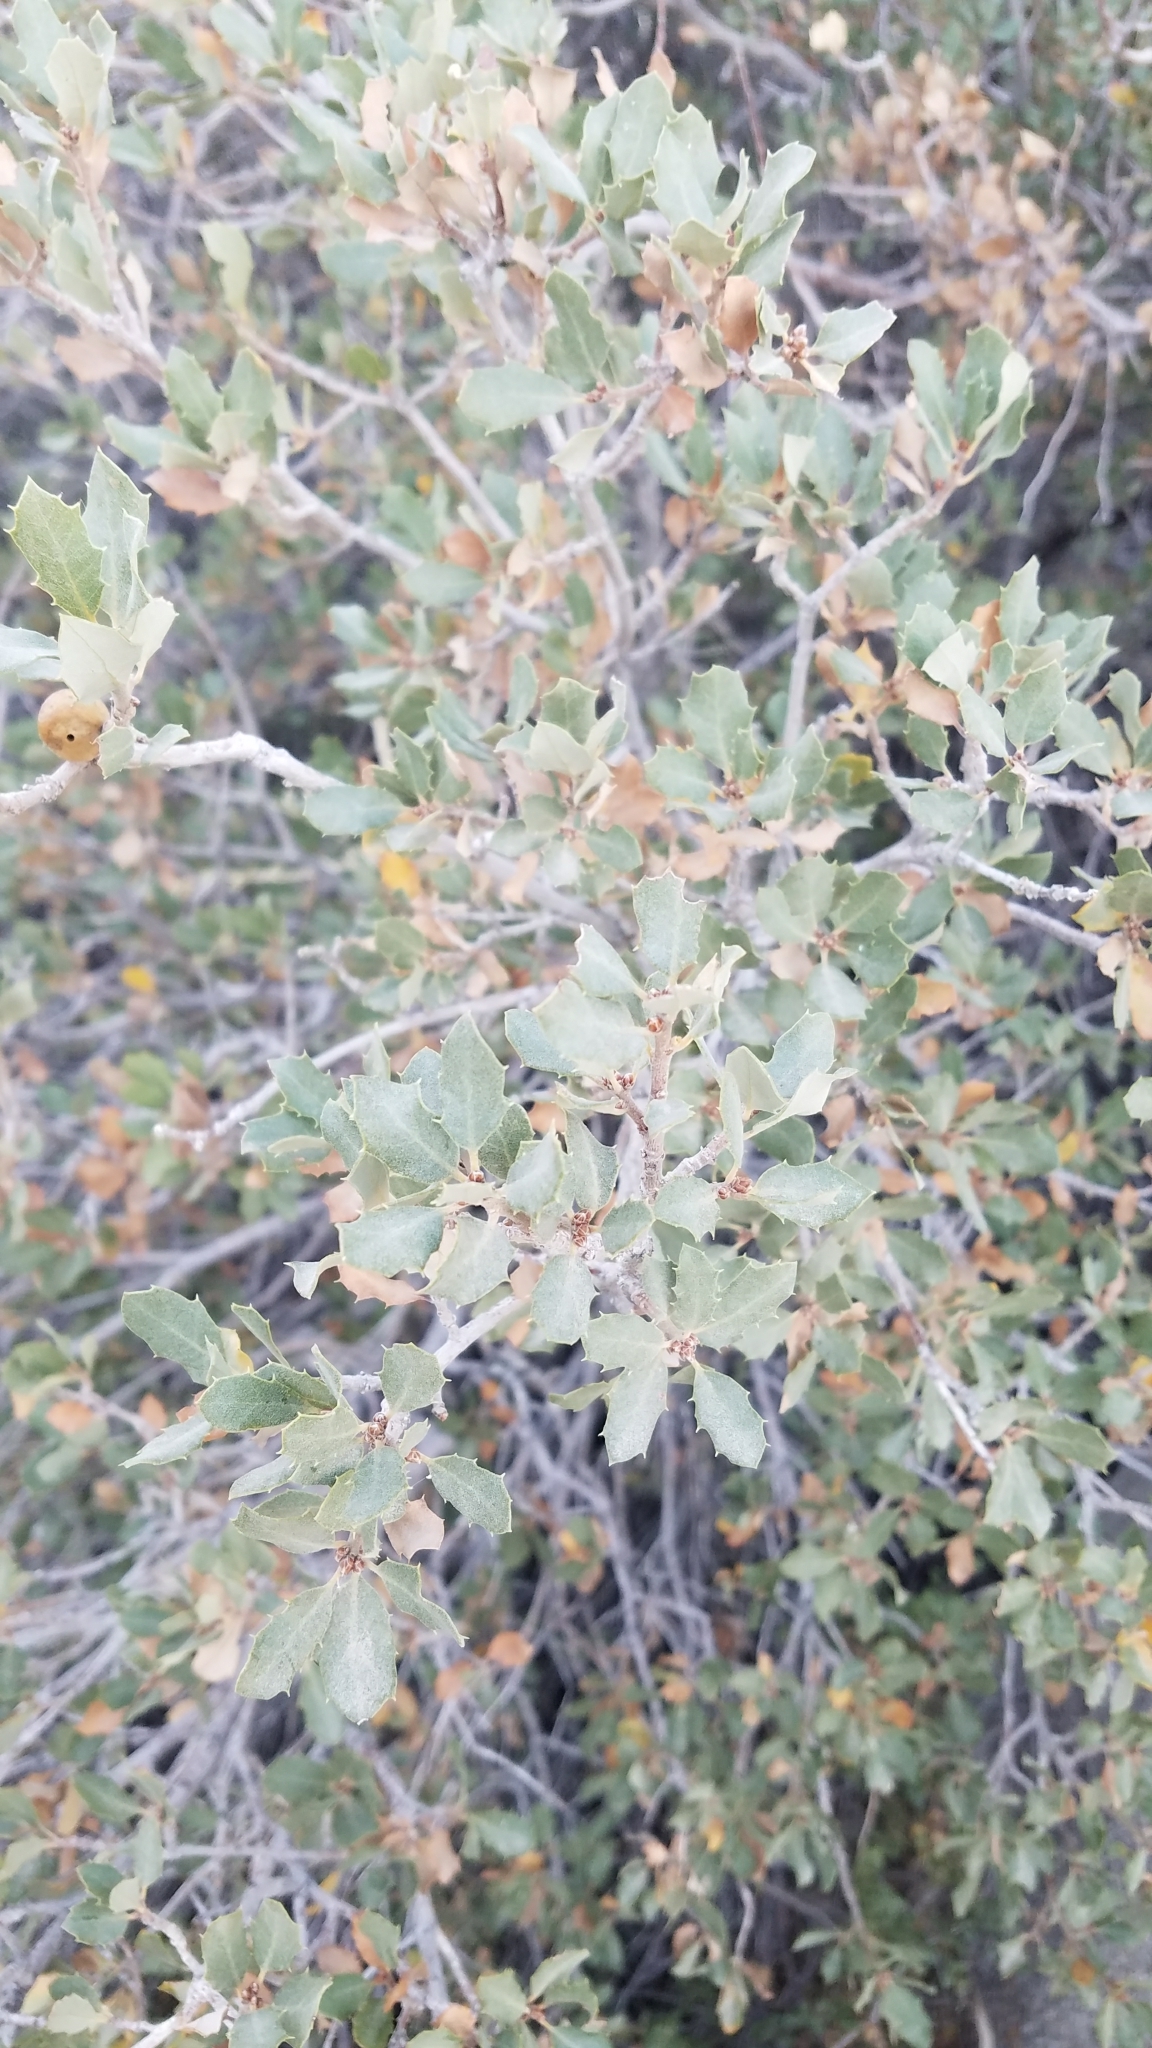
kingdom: Plantae
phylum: Tracheophyta
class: Magnoliopsida
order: Fagales
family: Fagaceae
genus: Quercus
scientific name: Quercus cornelius-mulleri
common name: Muller oak
